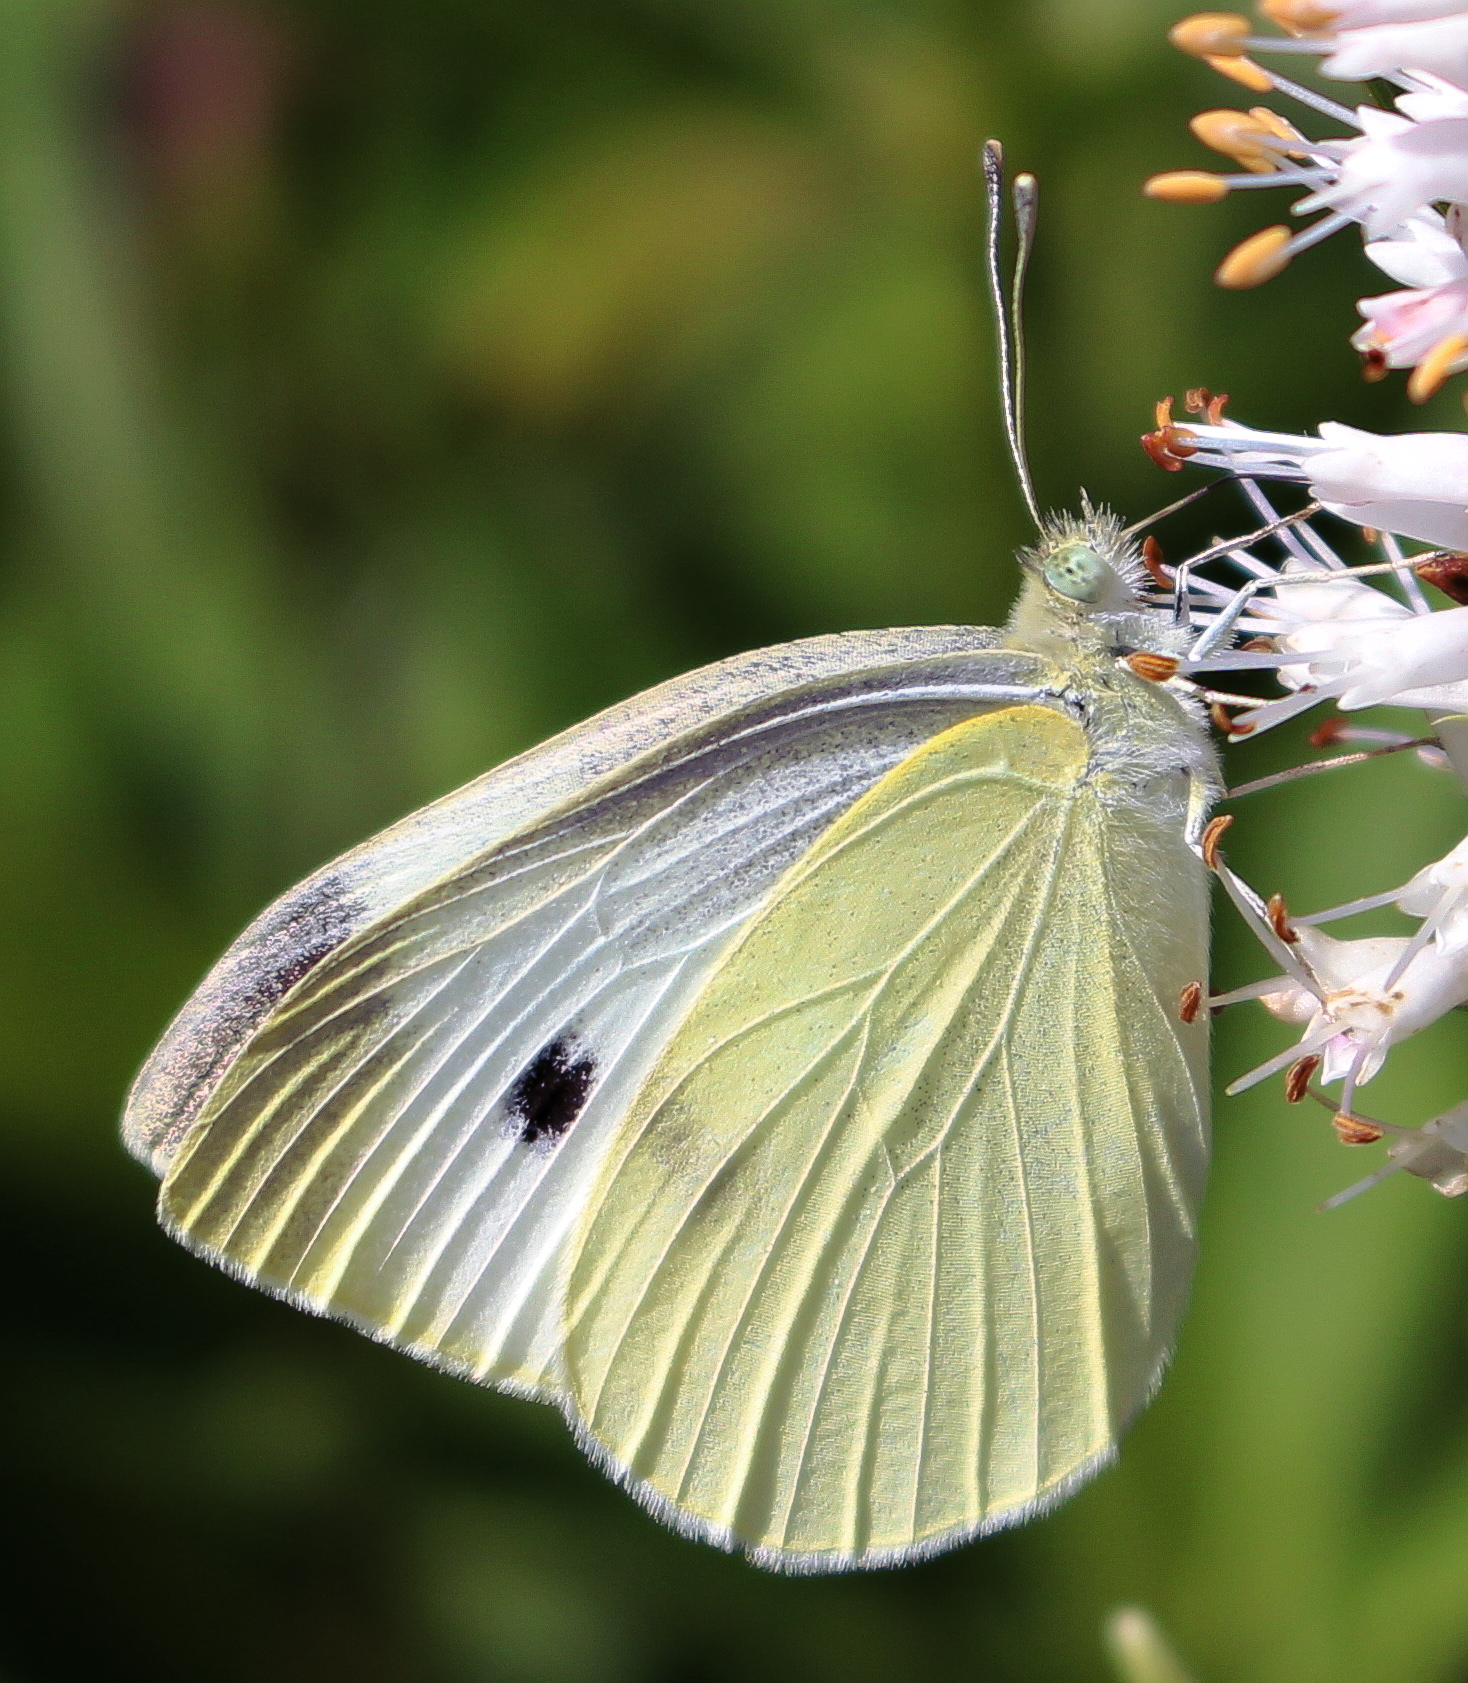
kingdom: Animalia
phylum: Arthropoda
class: Insecta
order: Lepidoptera
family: Pieridae
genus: Pieris
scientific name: Pieris rapae
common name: Small white
